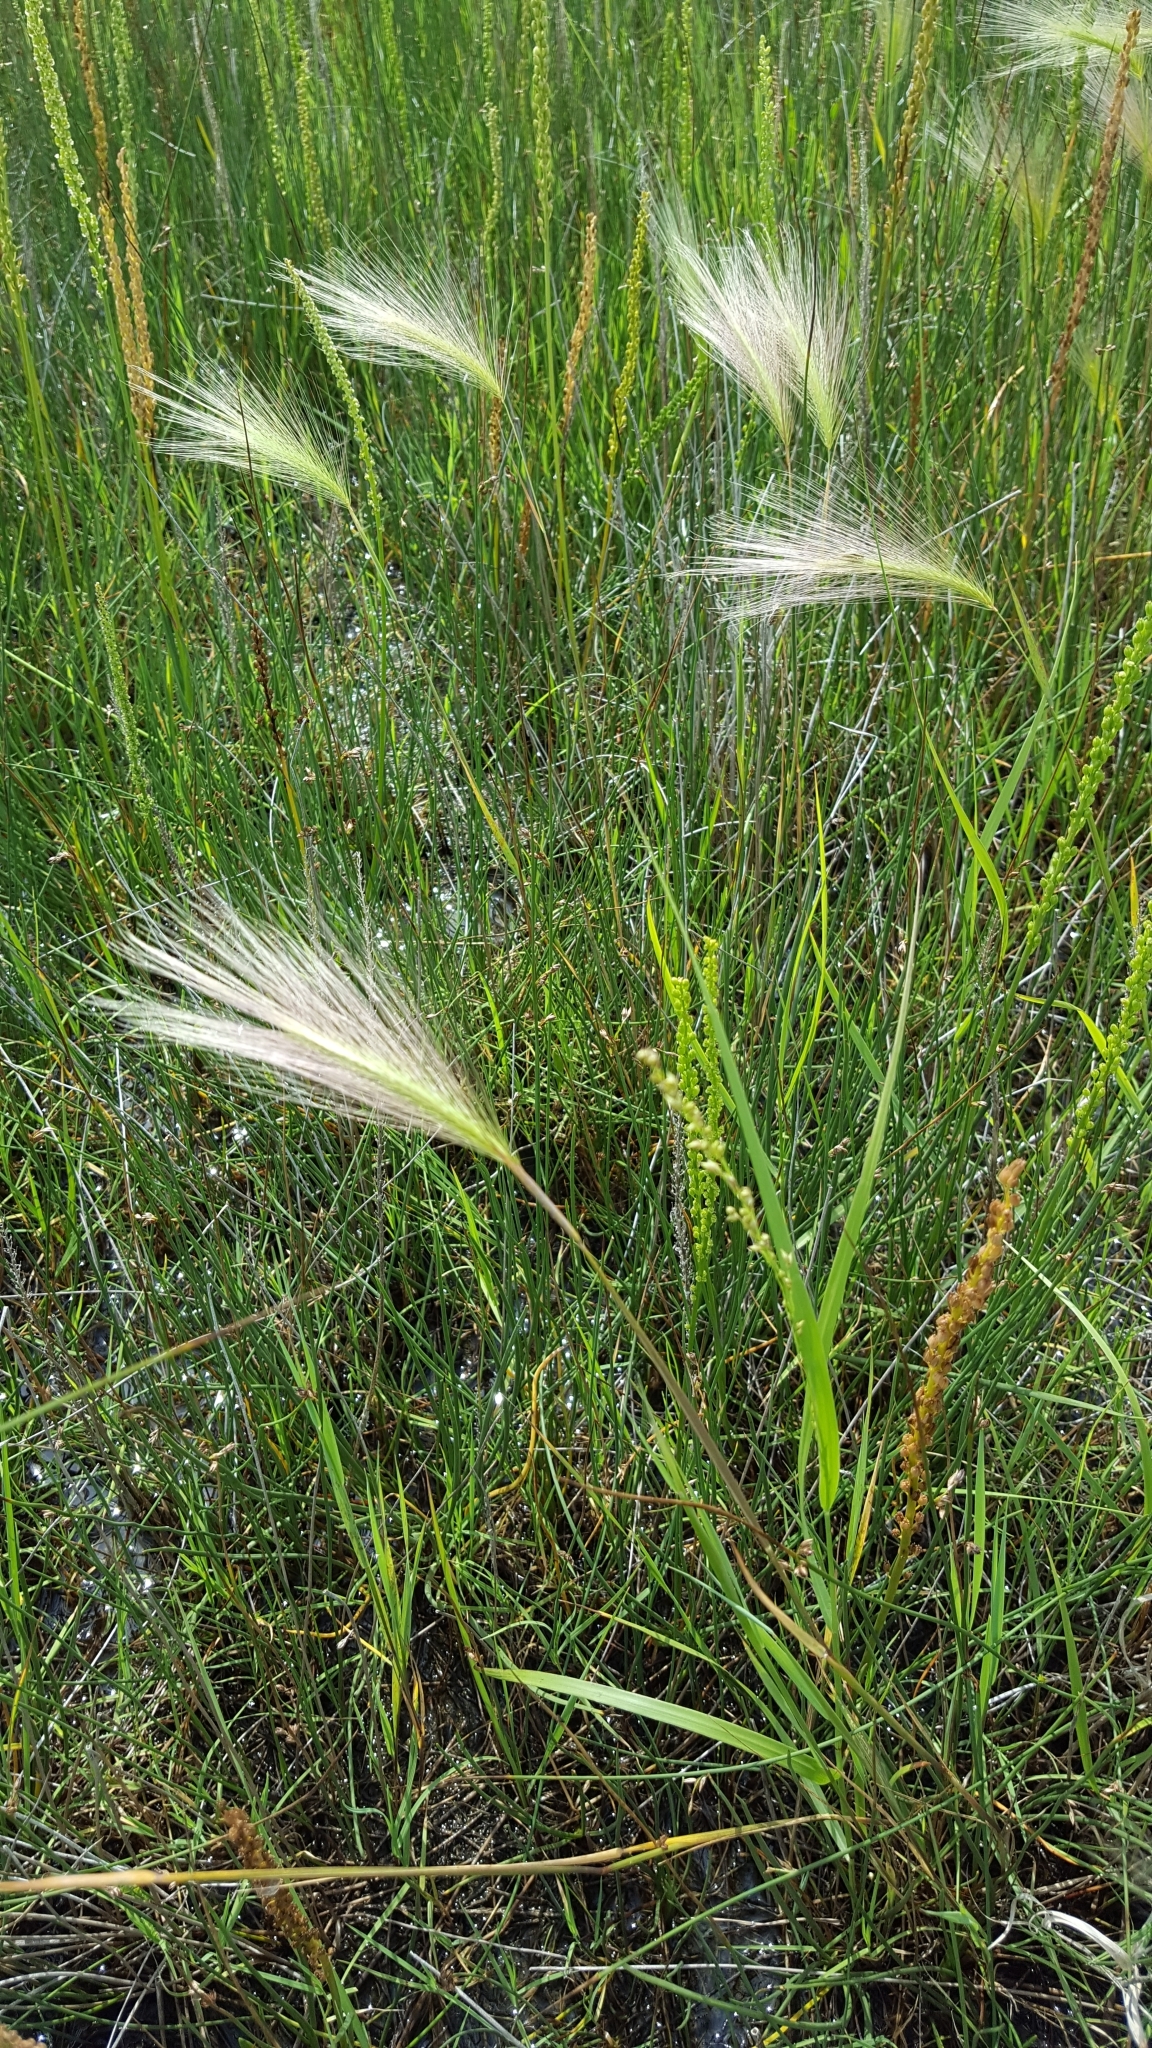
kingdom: Plantae
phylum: Tracheophyta
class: Liliopsida
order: Poales
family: Poaceae
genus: Hordeum
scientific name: Hordeum jubatum
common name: Foxtail barley
